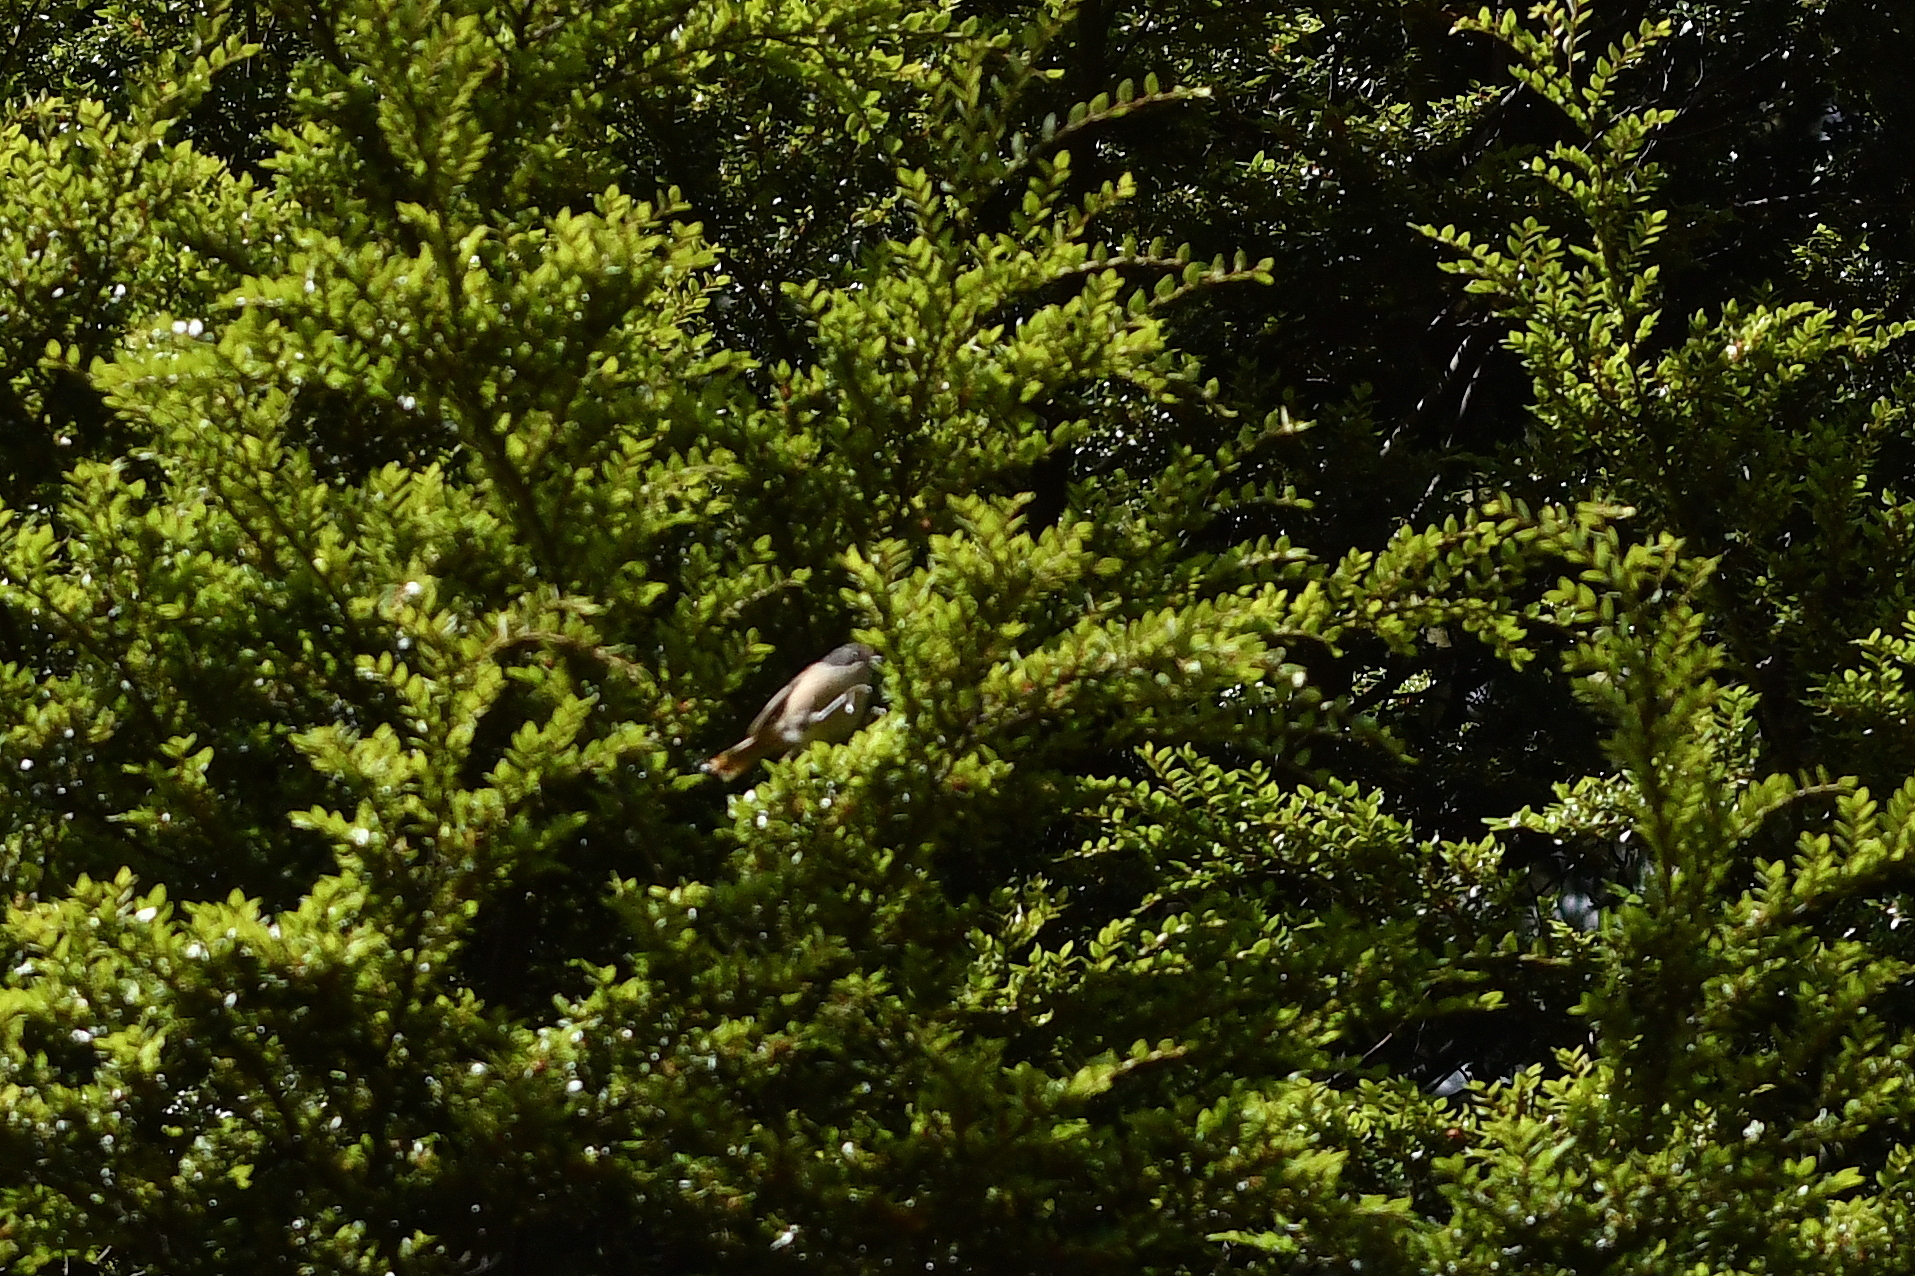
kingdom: Animalia
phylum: Chordata
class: Aves
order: Passeriformes
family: Acanthizidae
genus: Finschia
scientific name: Finschia novaeseelandiae
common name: Pipipi
